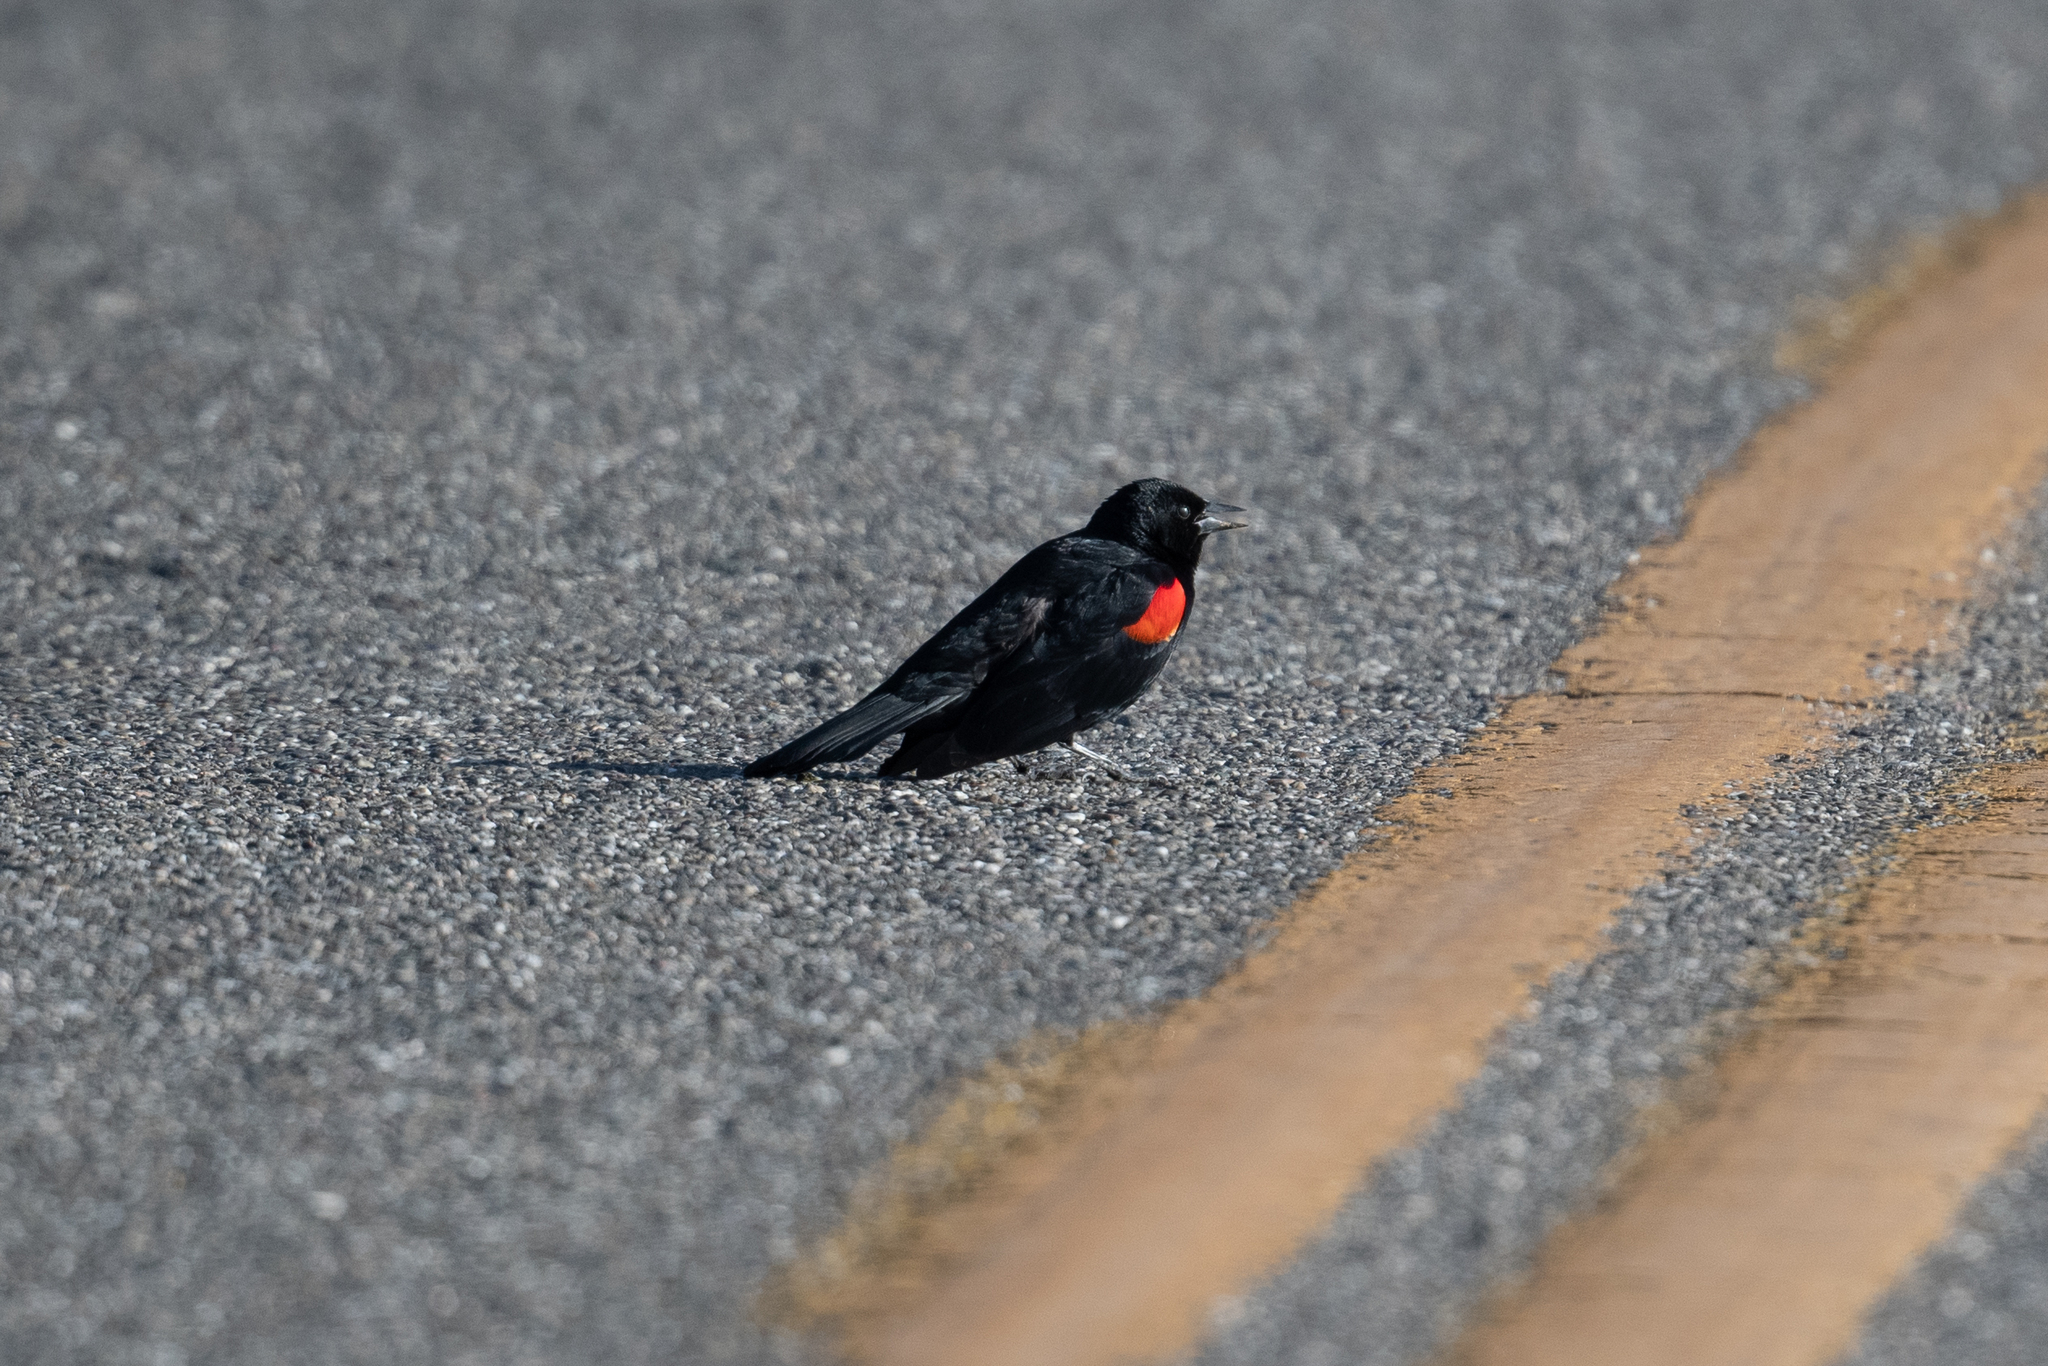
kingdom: Animalia
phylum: Chordata
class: Aves
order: Passeriformes
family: Icteridae
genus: Agelaius
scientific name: Agelaius phoeniceus
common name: Red-winged blackbird
